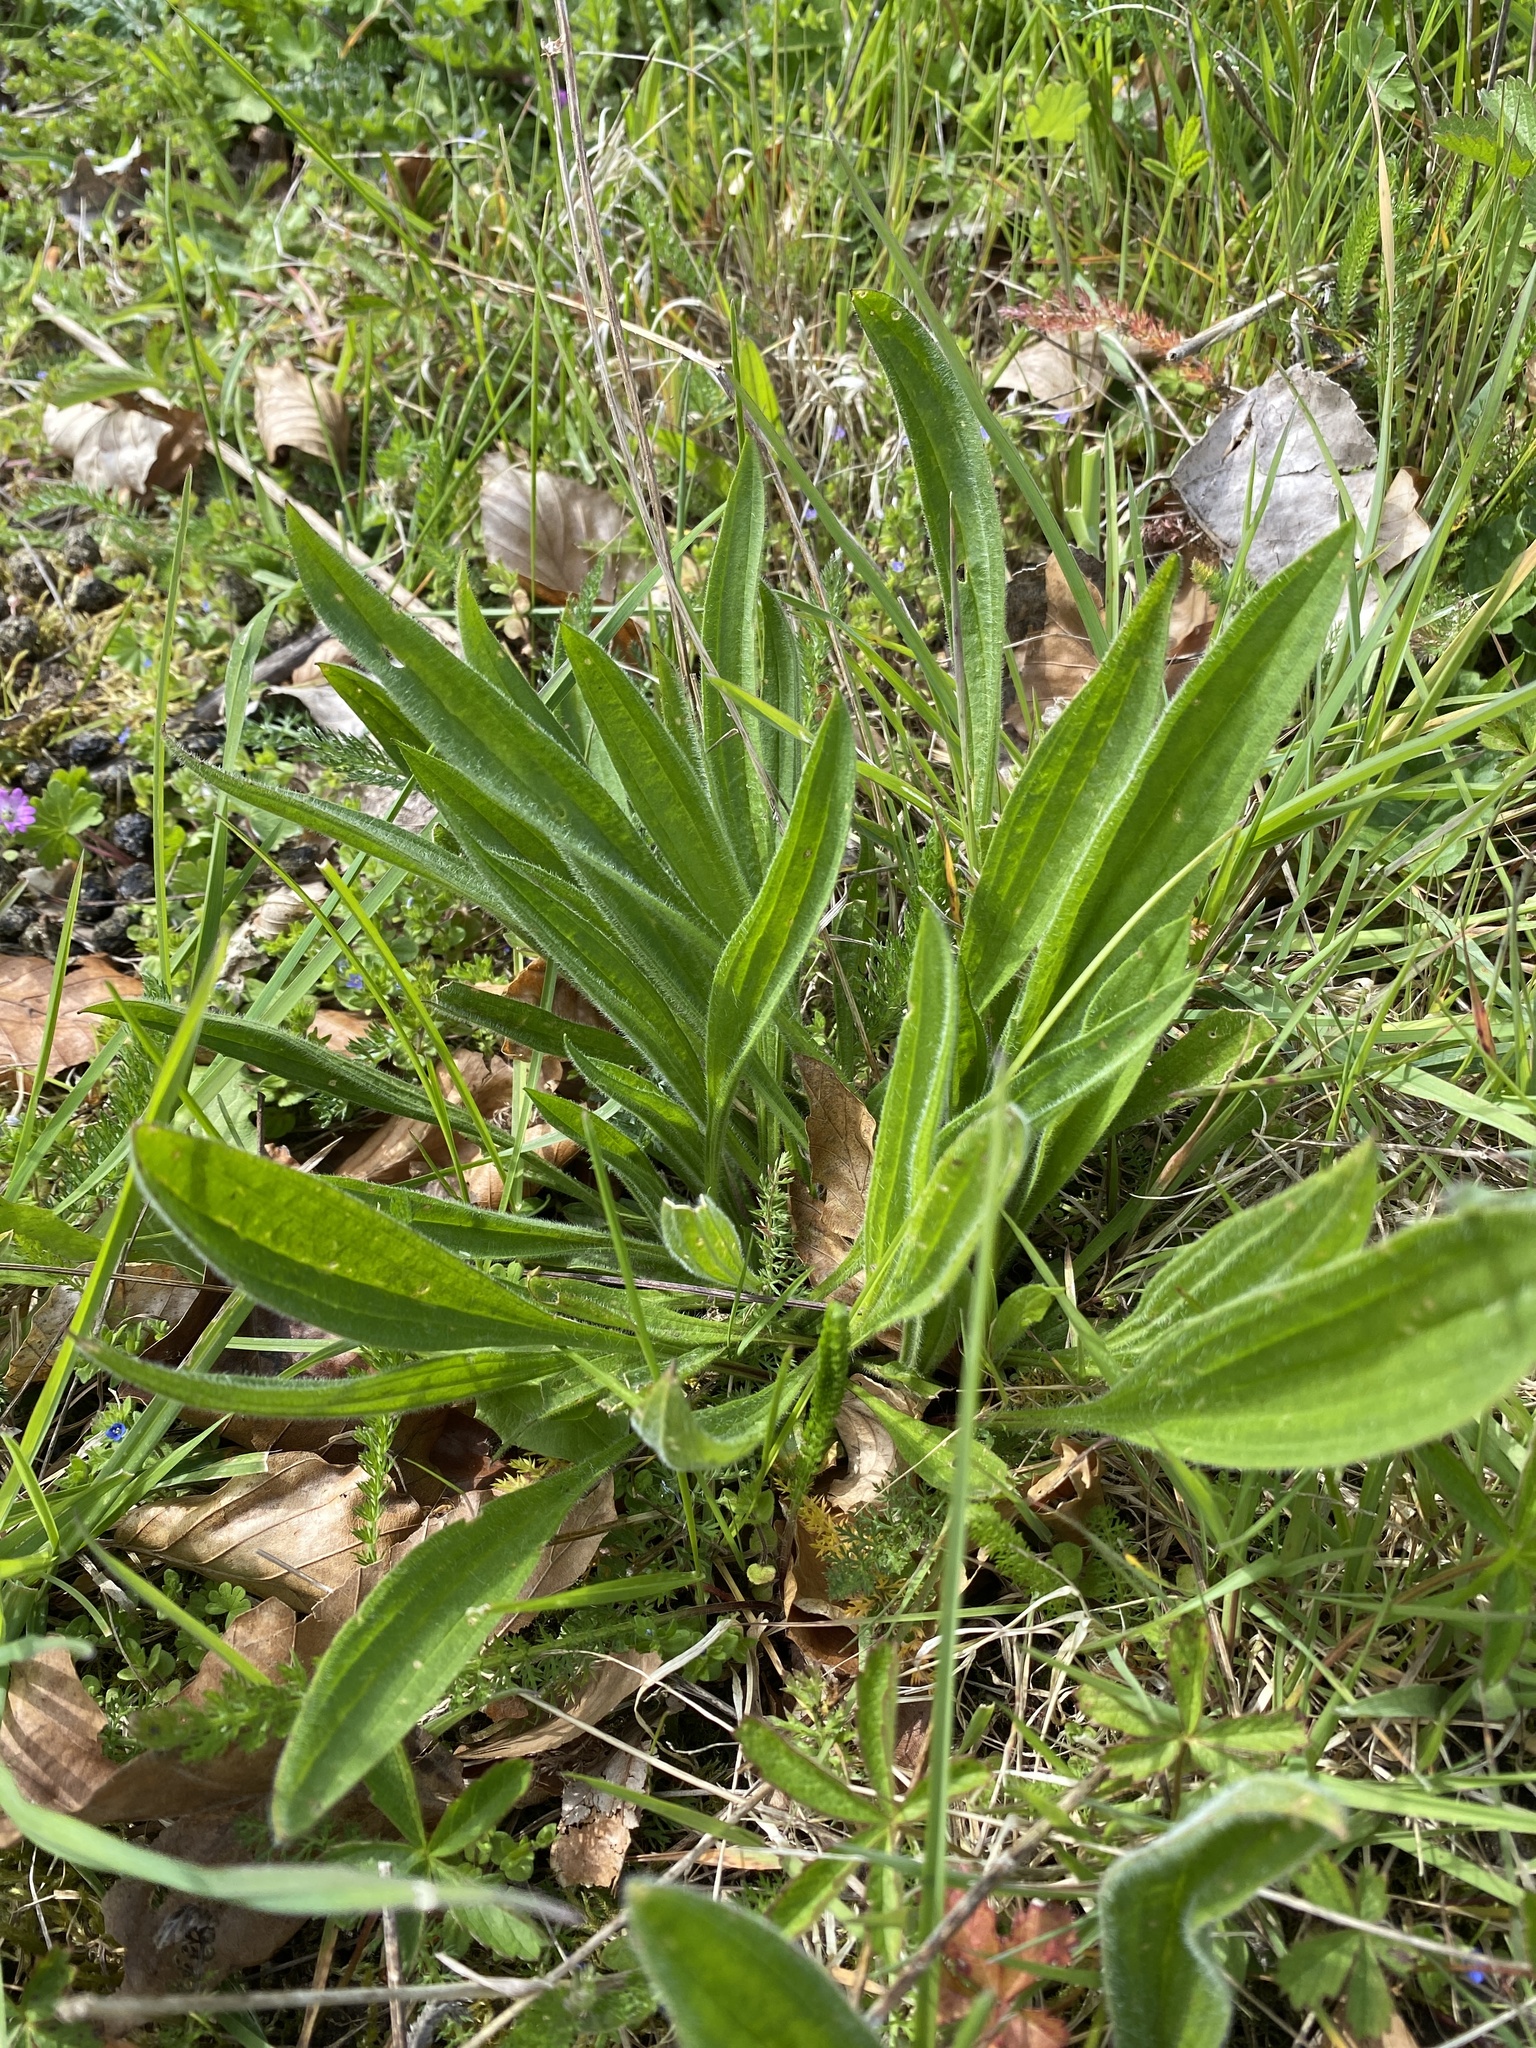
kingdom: Plantae
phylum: Tracheophyta
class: Magnoliopsida
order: Lamiales
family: Plantaginaceae
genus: Plantago
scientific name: Plantago lanceolata
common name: Ribwort plantain
